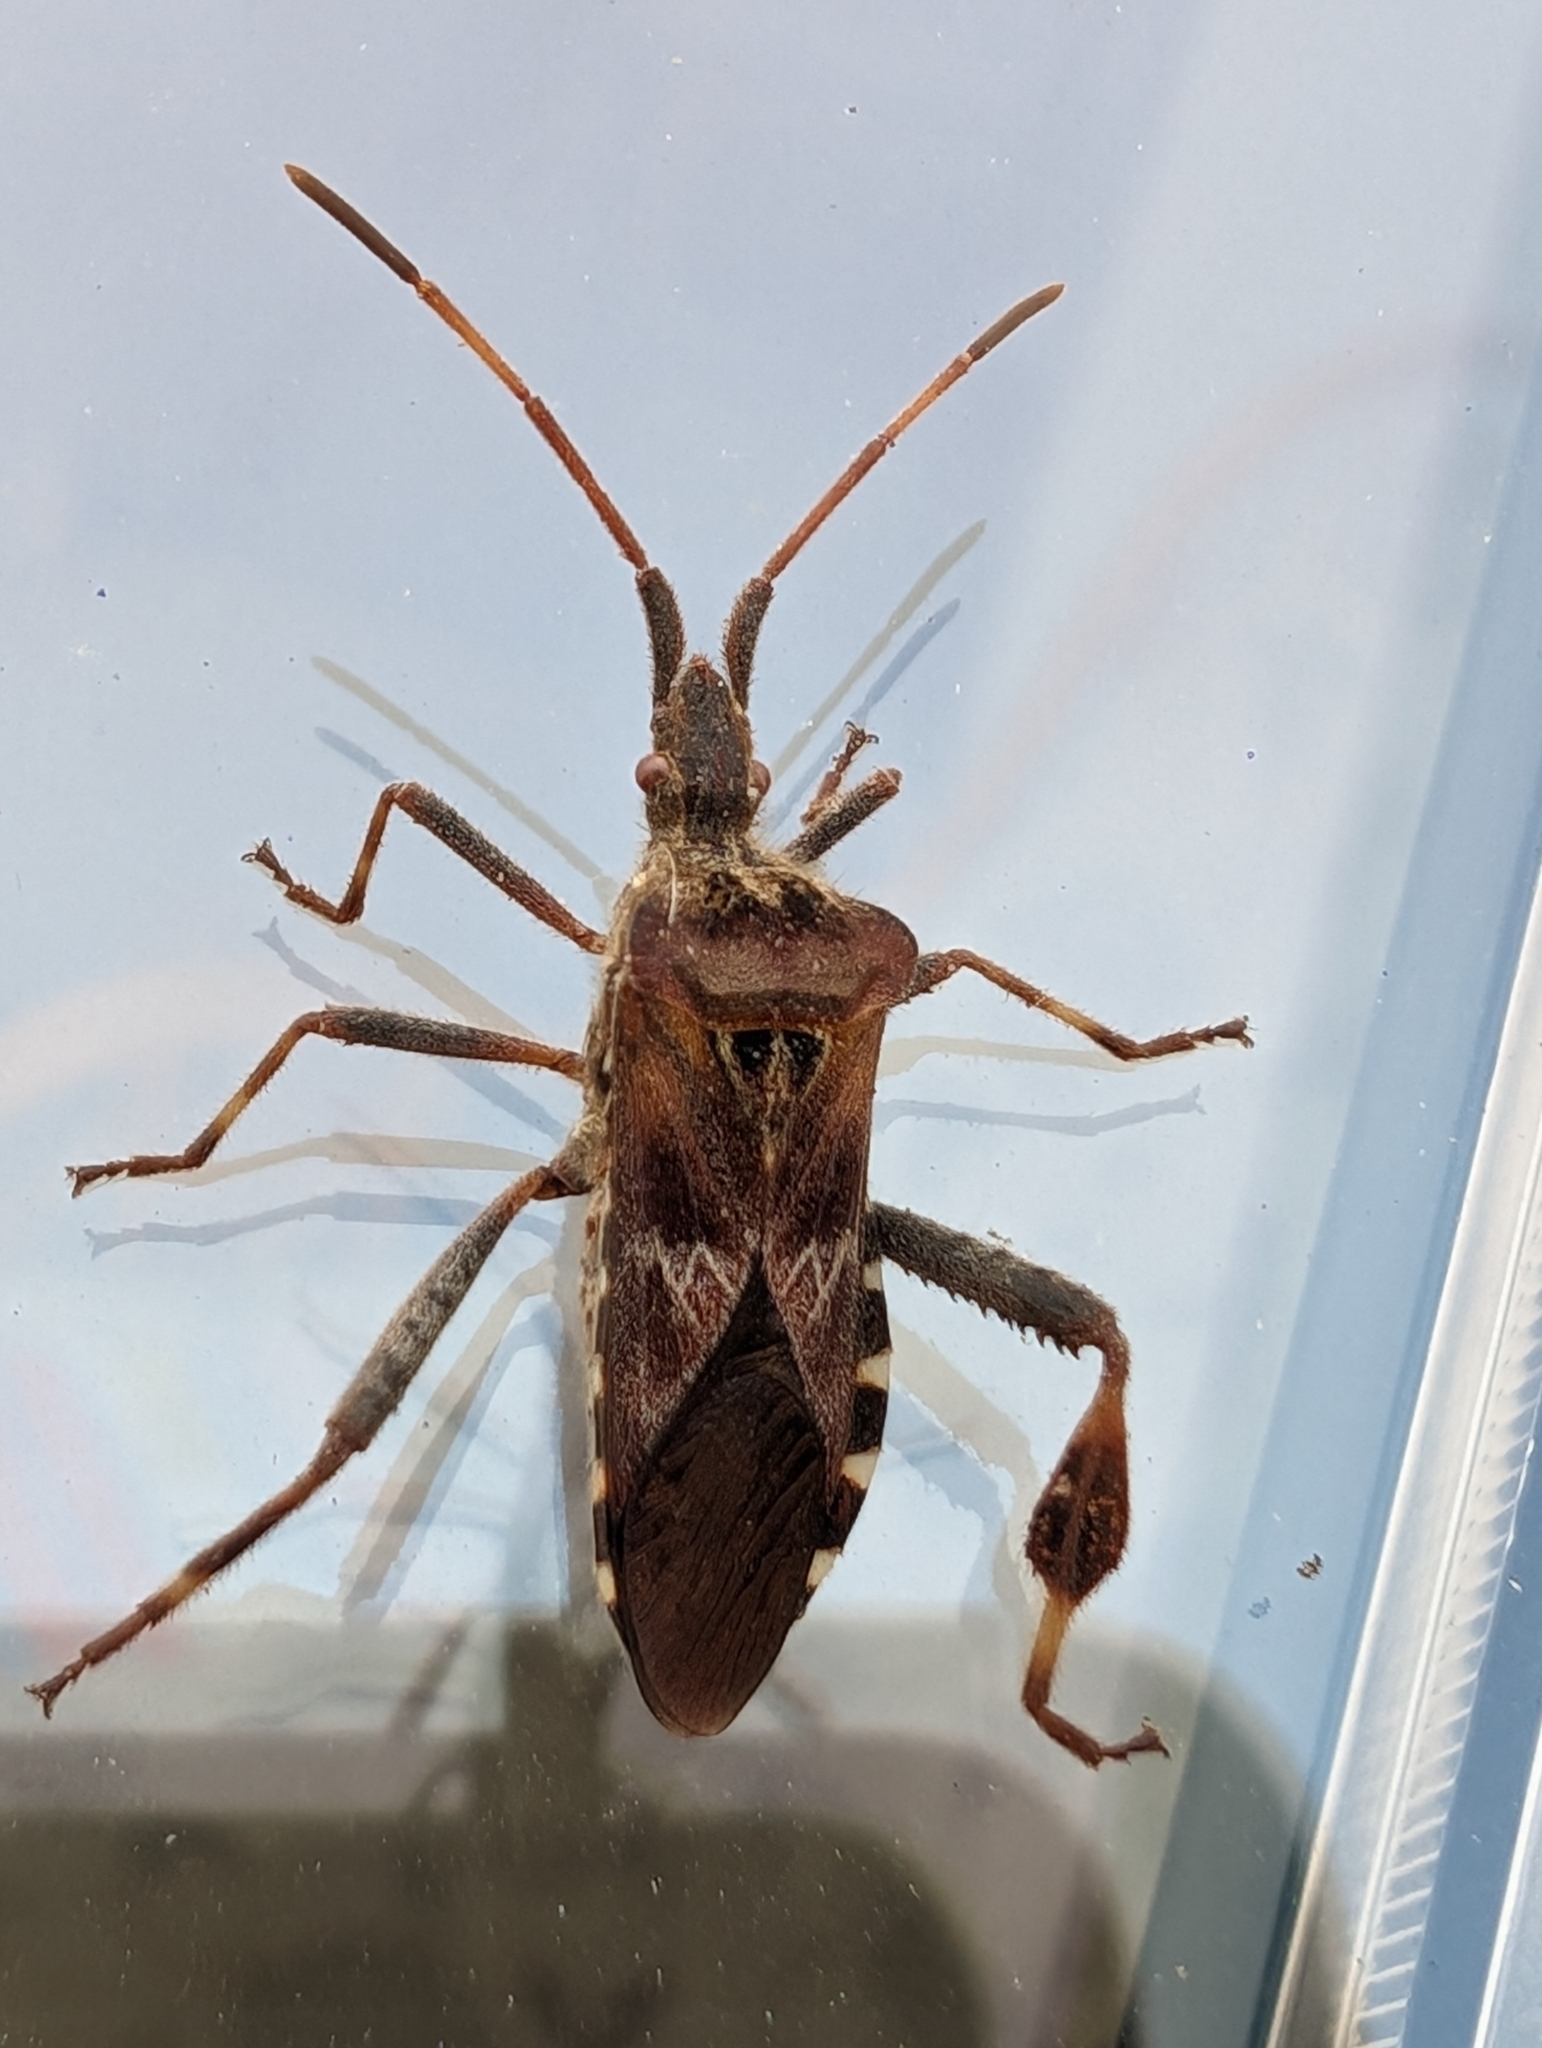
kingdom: Animalia
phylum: Arthropoda
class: Insecta
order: Hemiptera
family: Coreidae
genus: Leptoglossus
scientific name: Leptoglossus occidentalis
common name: Western conifer-seed bug
